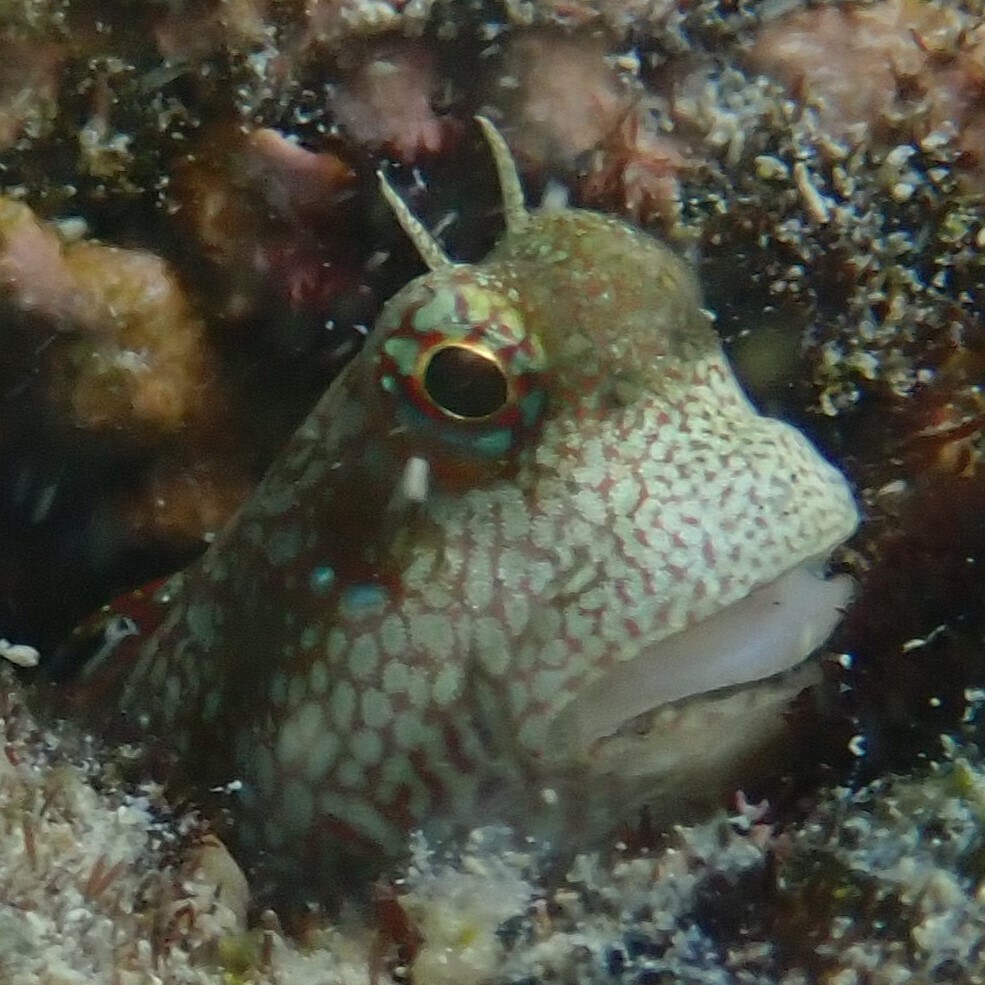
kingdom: Animalia
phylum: Chordata
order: Perciformes
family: Blenniidae
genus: Blenniella
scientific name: Blenniella gibbifrons
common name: Picture rockskipper
